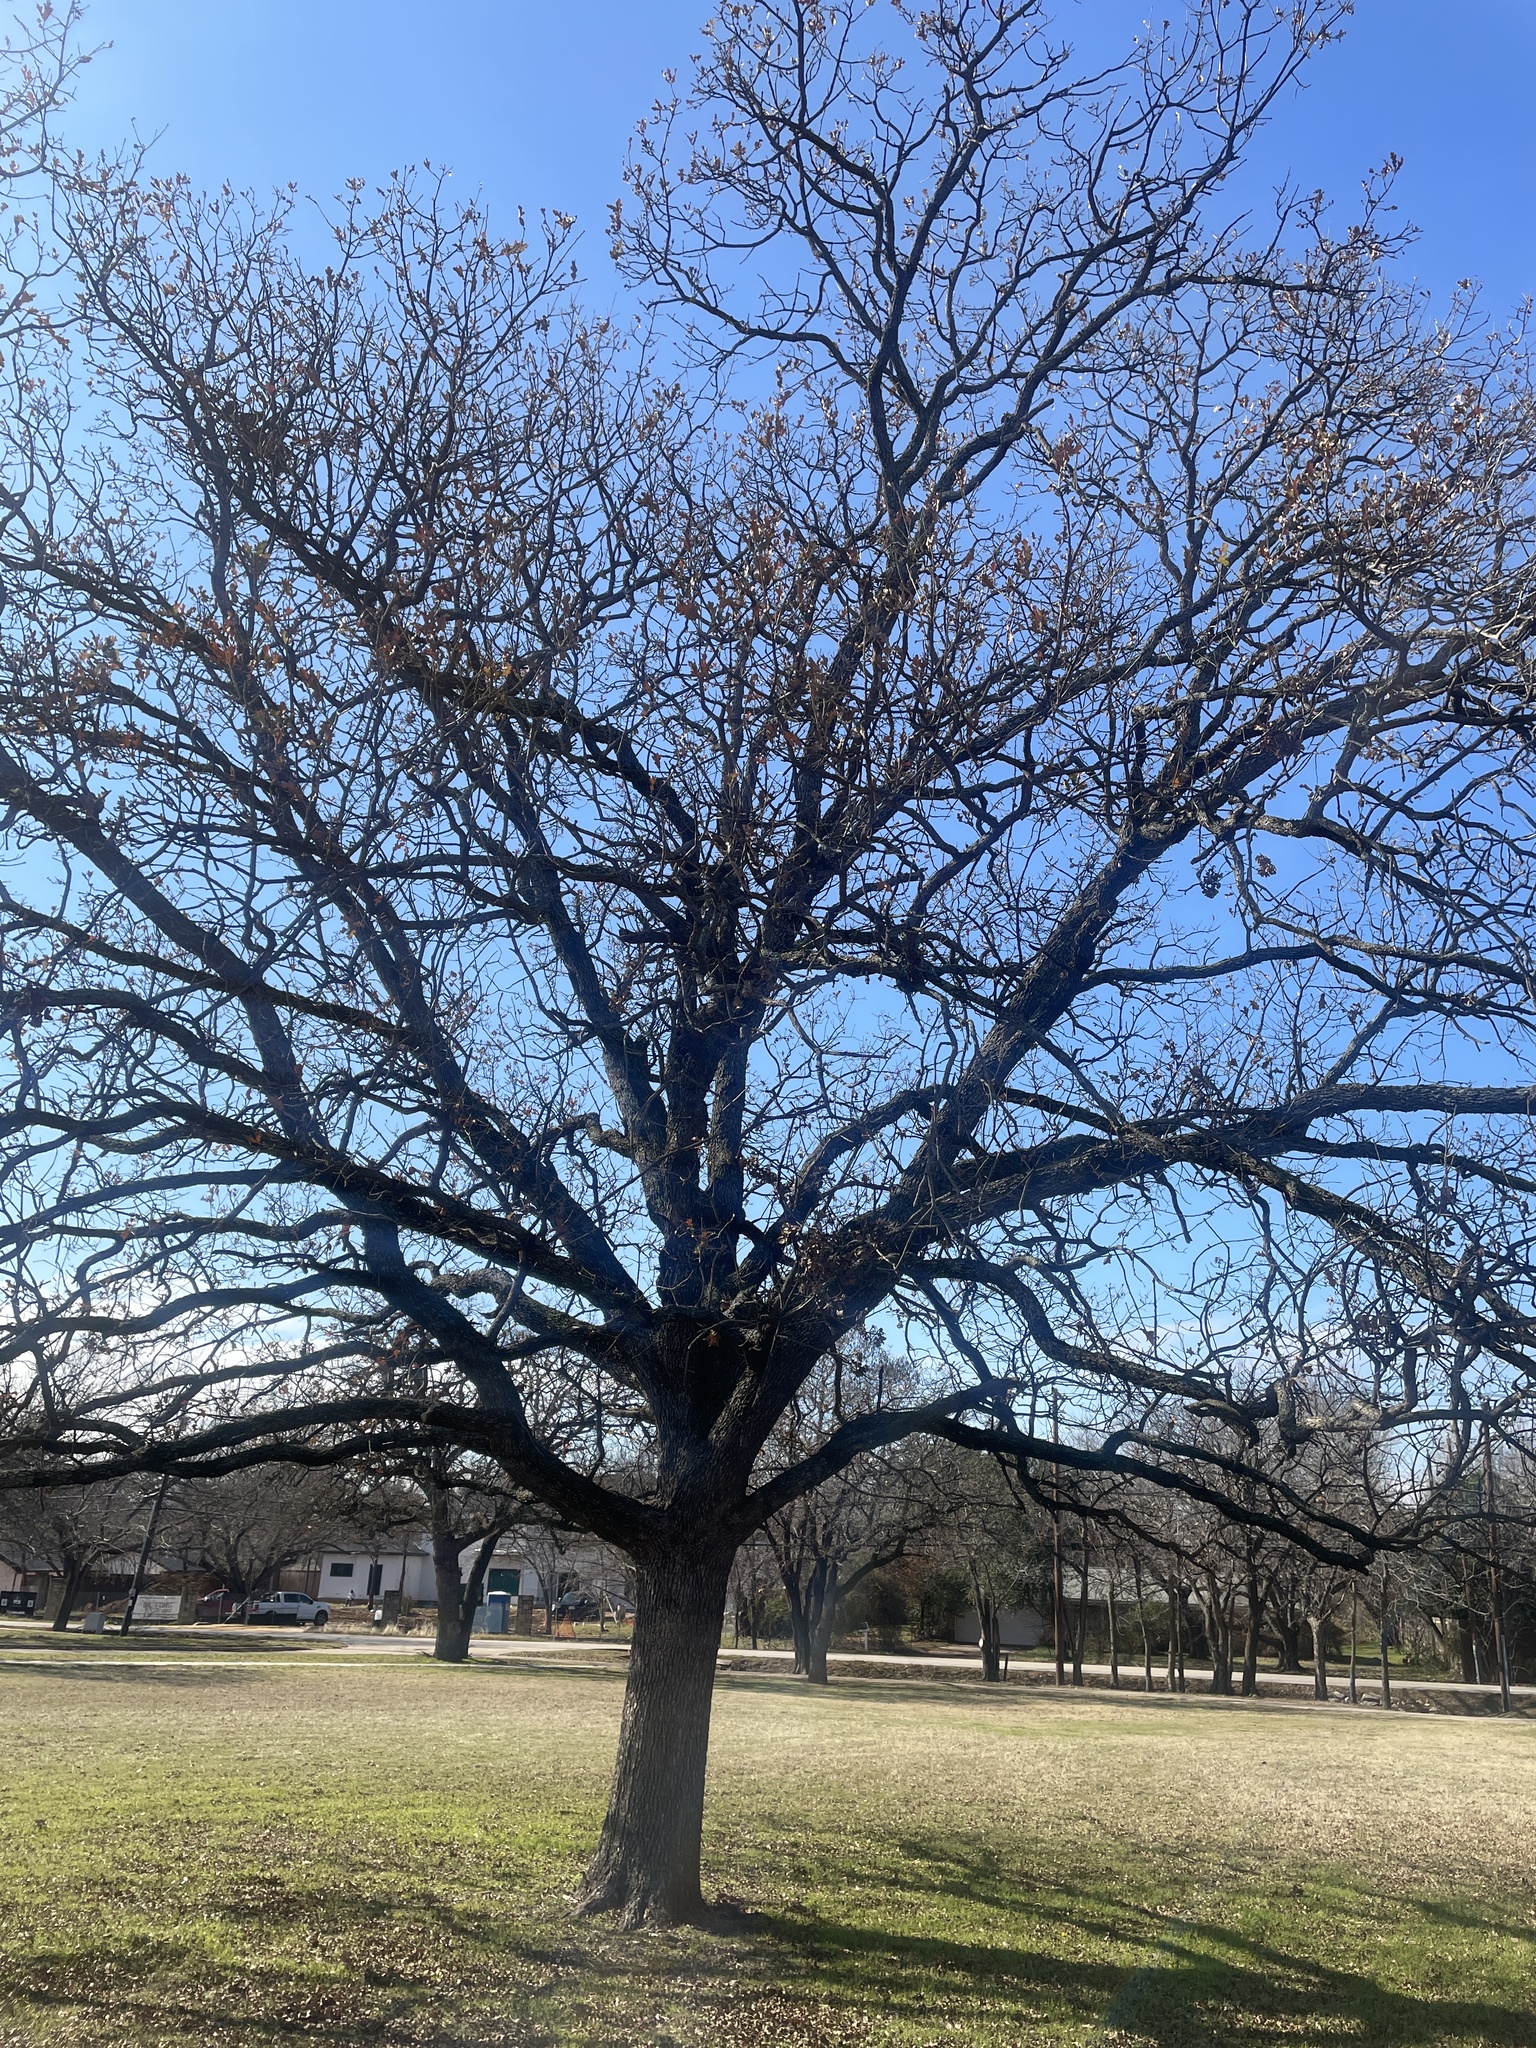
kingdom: Plantae
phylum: Tracheophyta
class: Magnoliopsida
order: Fagales
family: Fagaceae
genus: Quercus
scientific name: Quercus stellata
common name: Post oak
